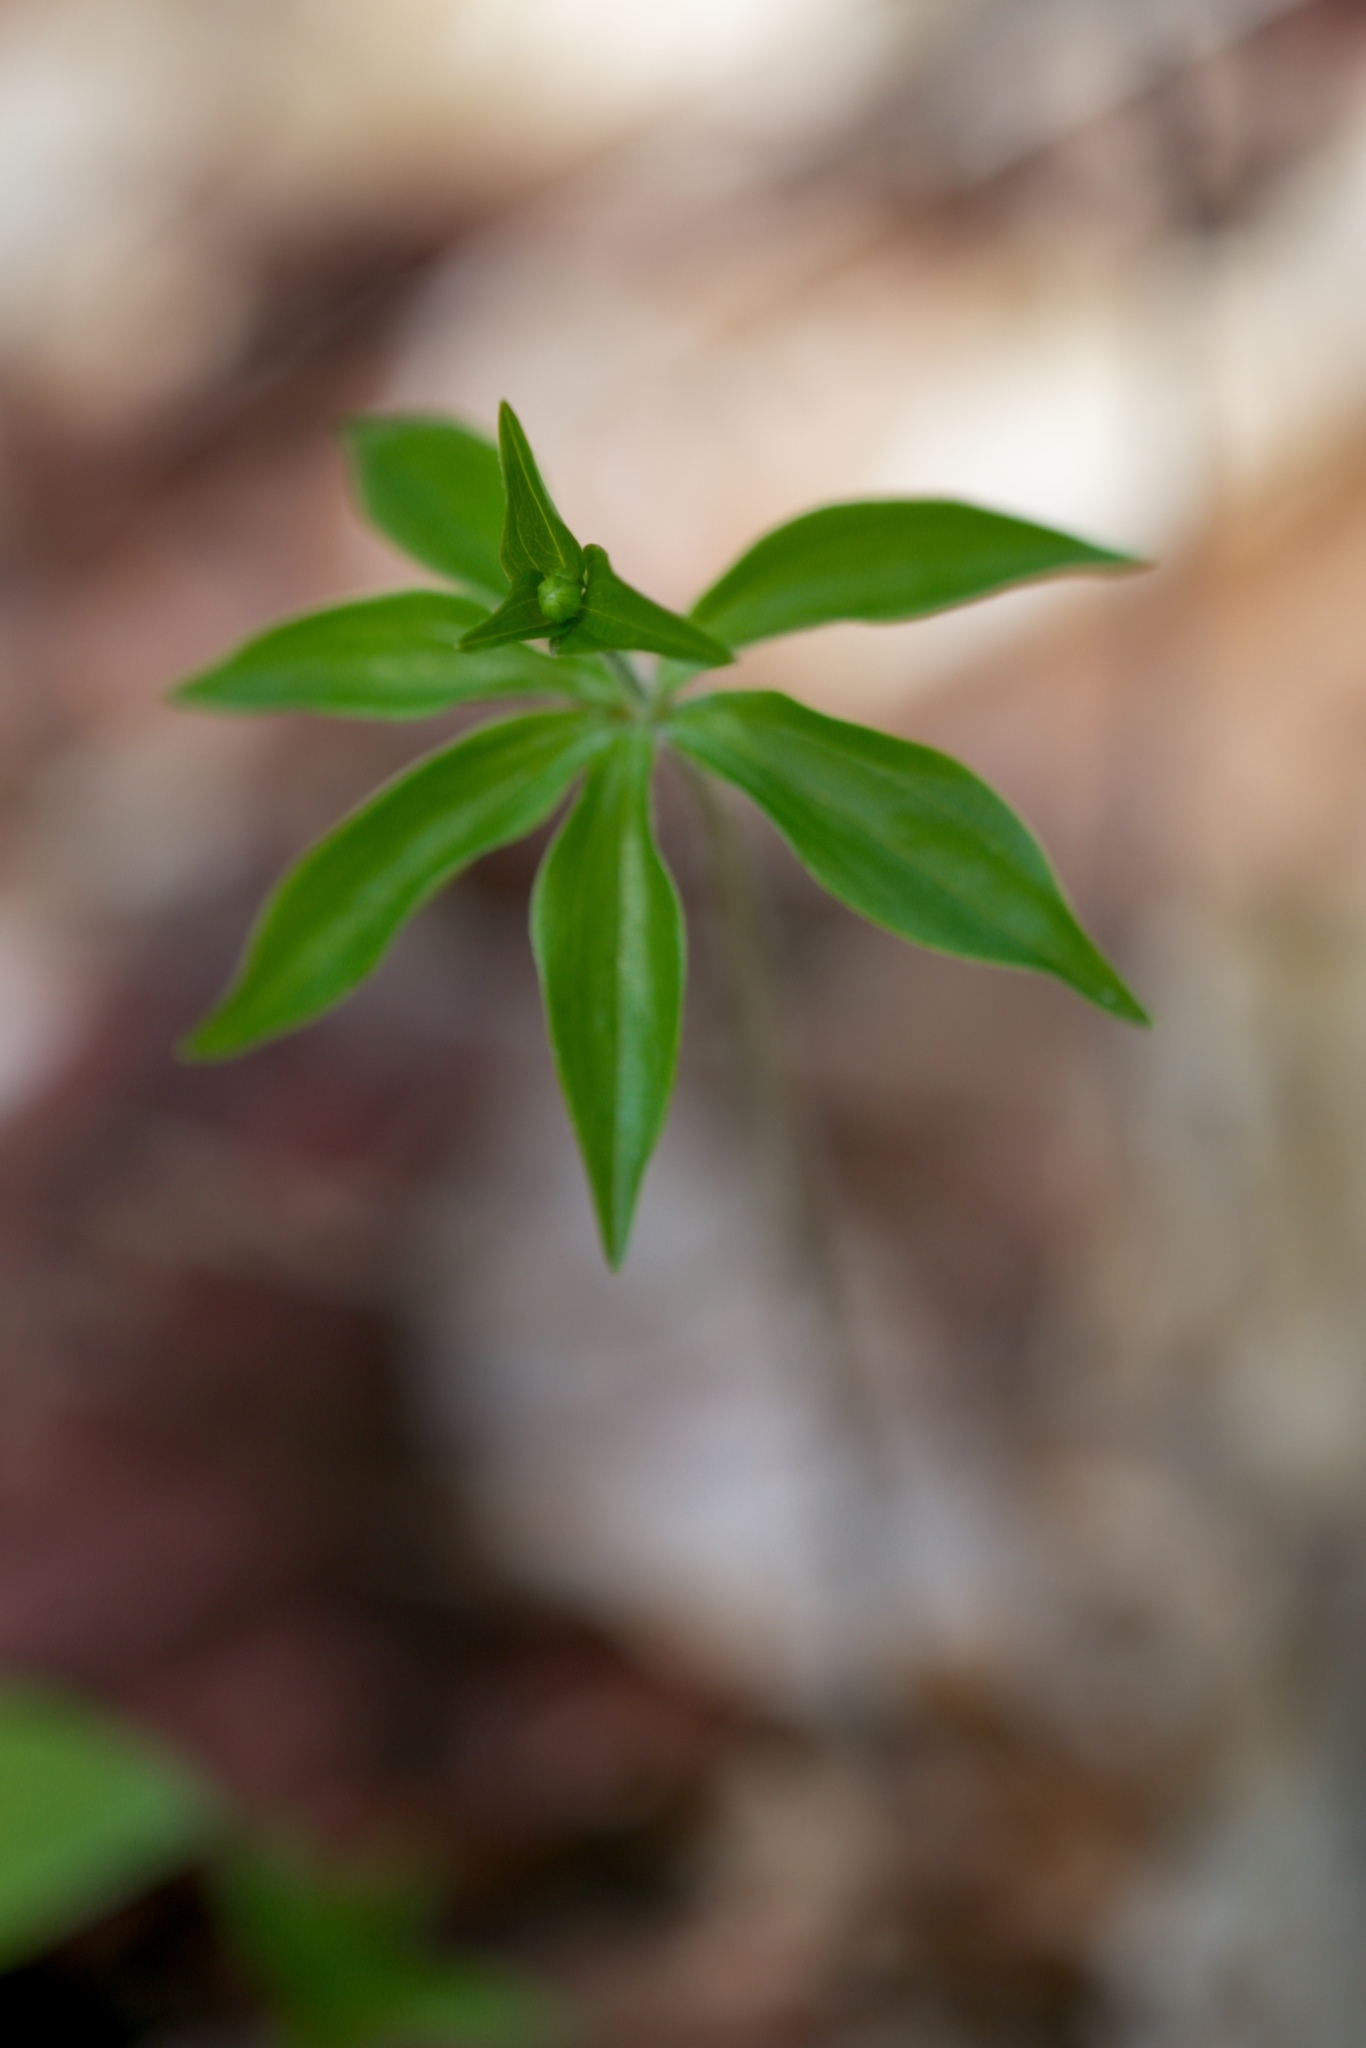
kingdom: Plantae
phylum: Tracheophyta
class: Liliopsida
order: Liliales
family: Liliaceae
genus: Medeola
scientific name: Medeola virginiana
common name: Indian cucumber-root
